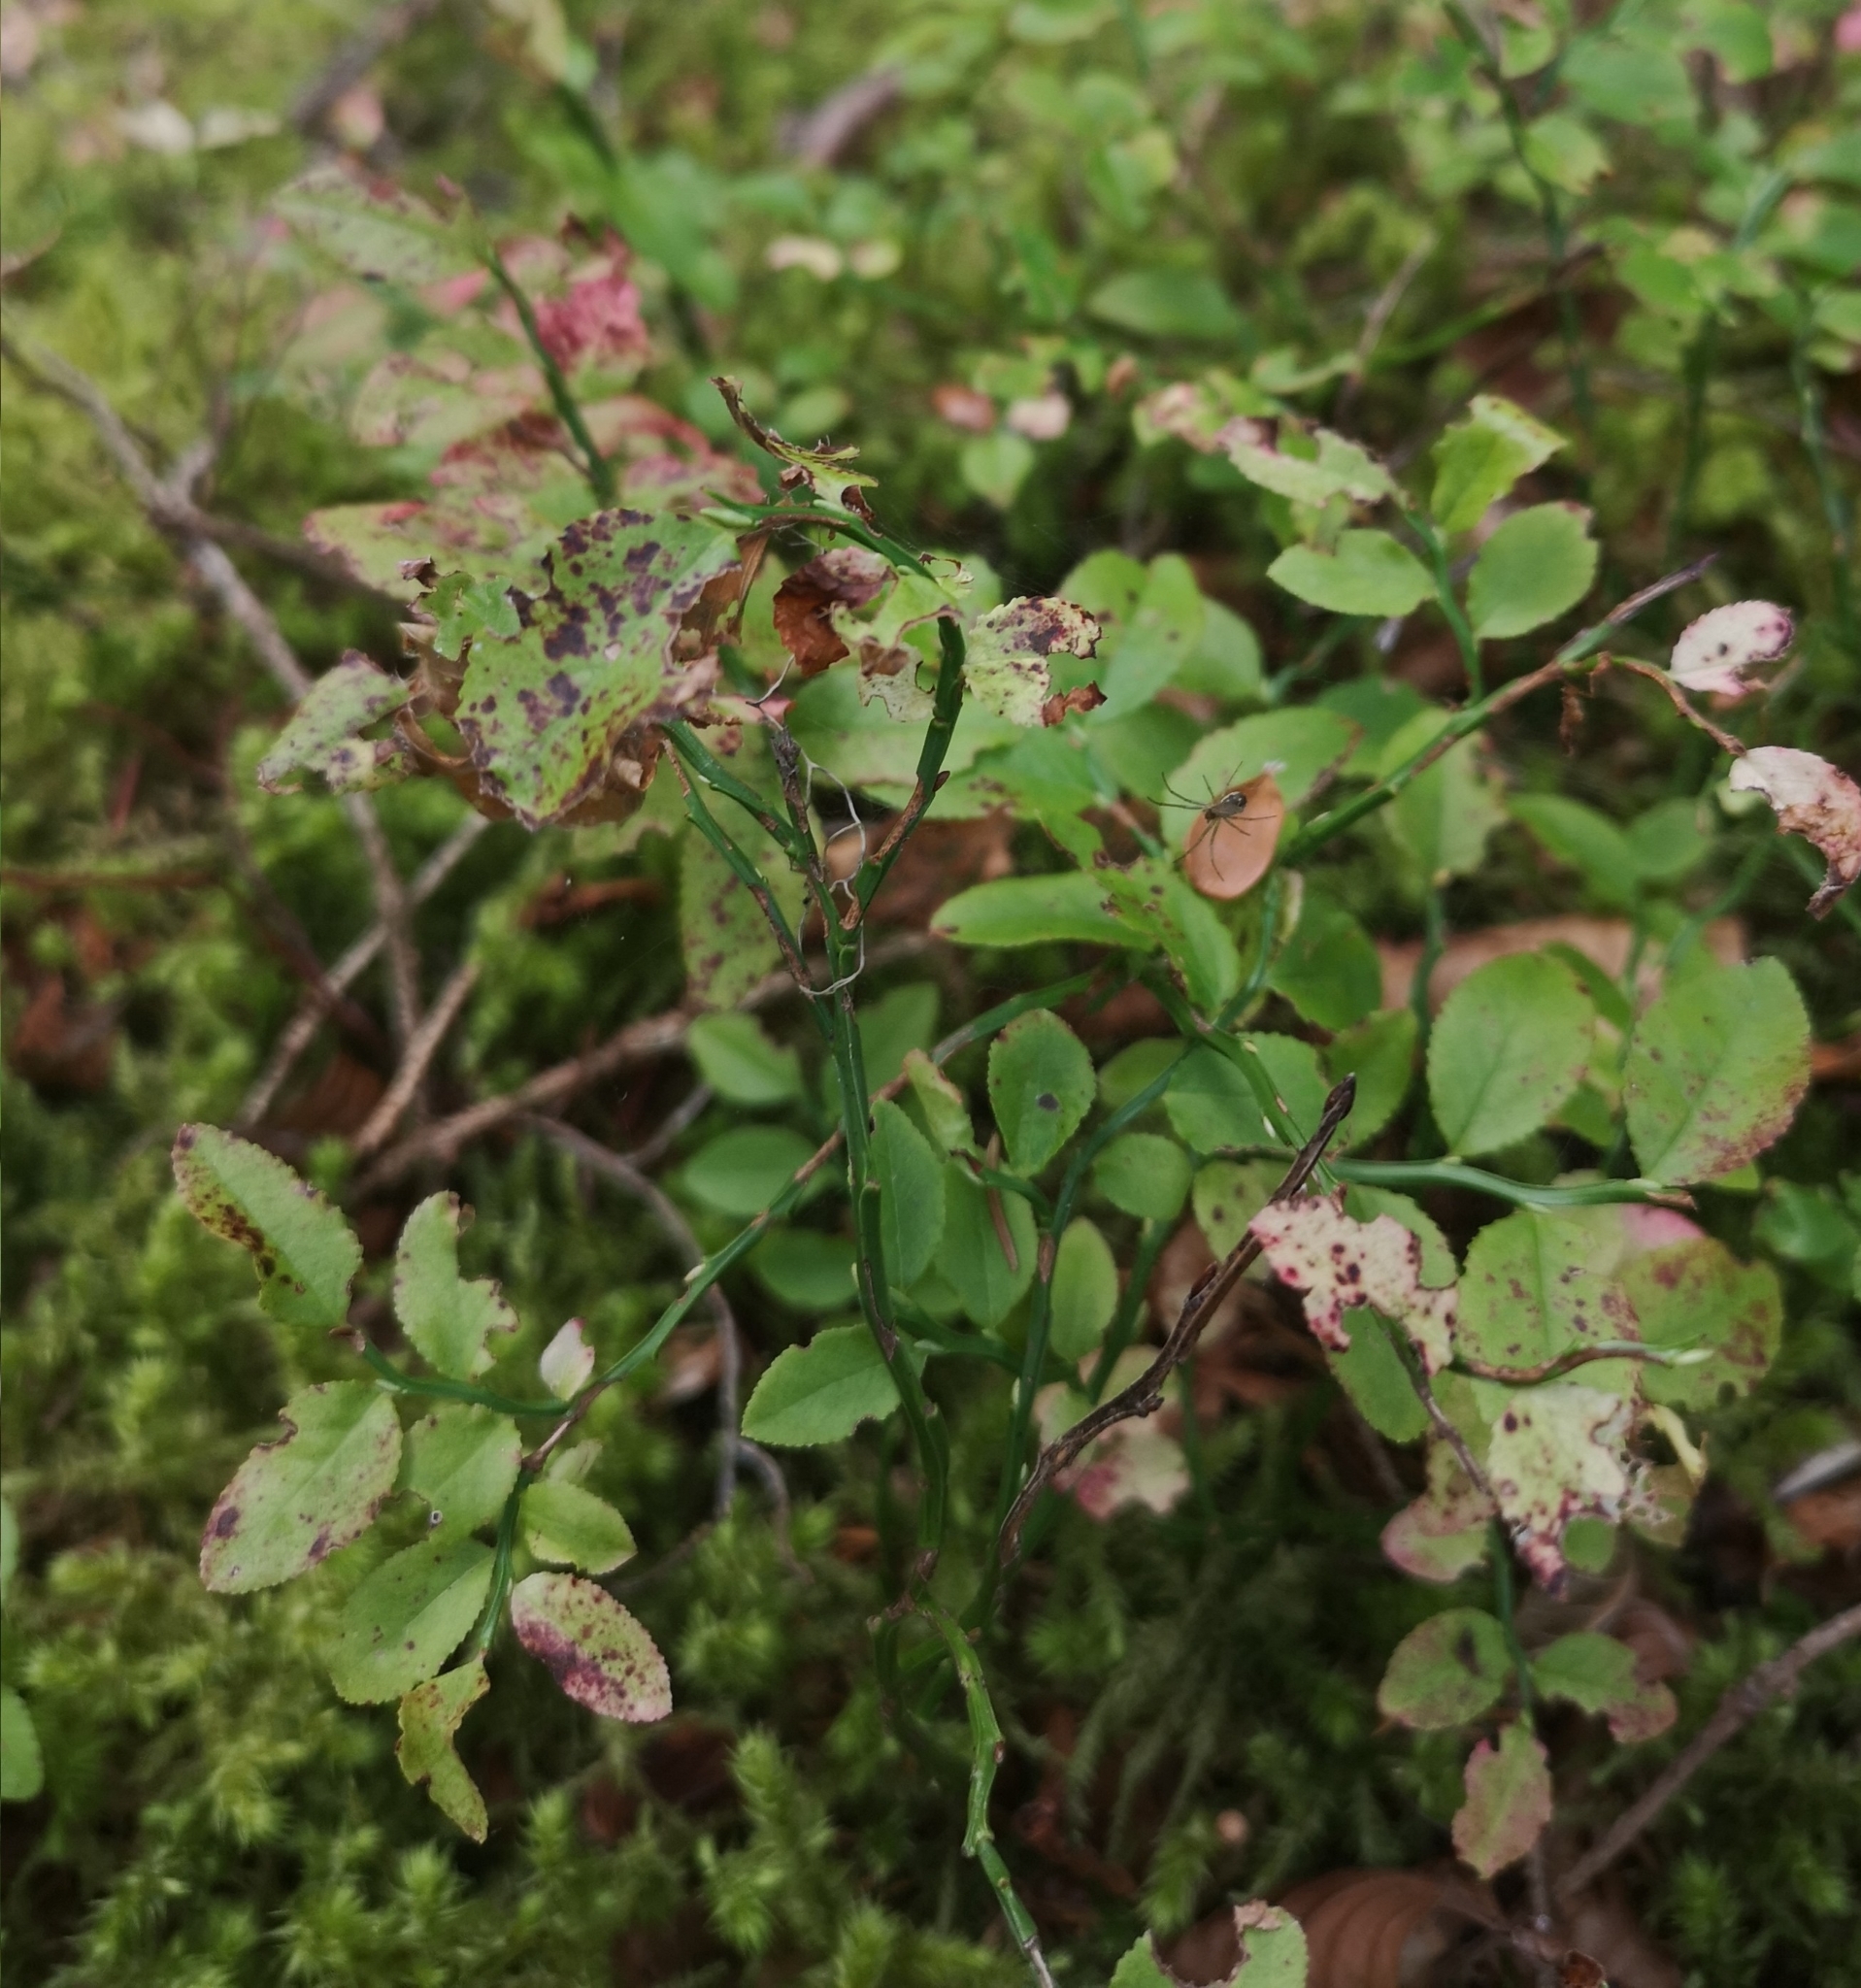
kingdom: Plantae
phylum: Tracheophyta
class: Magnoliopsida
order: Ericales
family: Ericaceae
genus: Vaccinium
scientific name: Vaccinium myrtillus
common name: Bilberry
